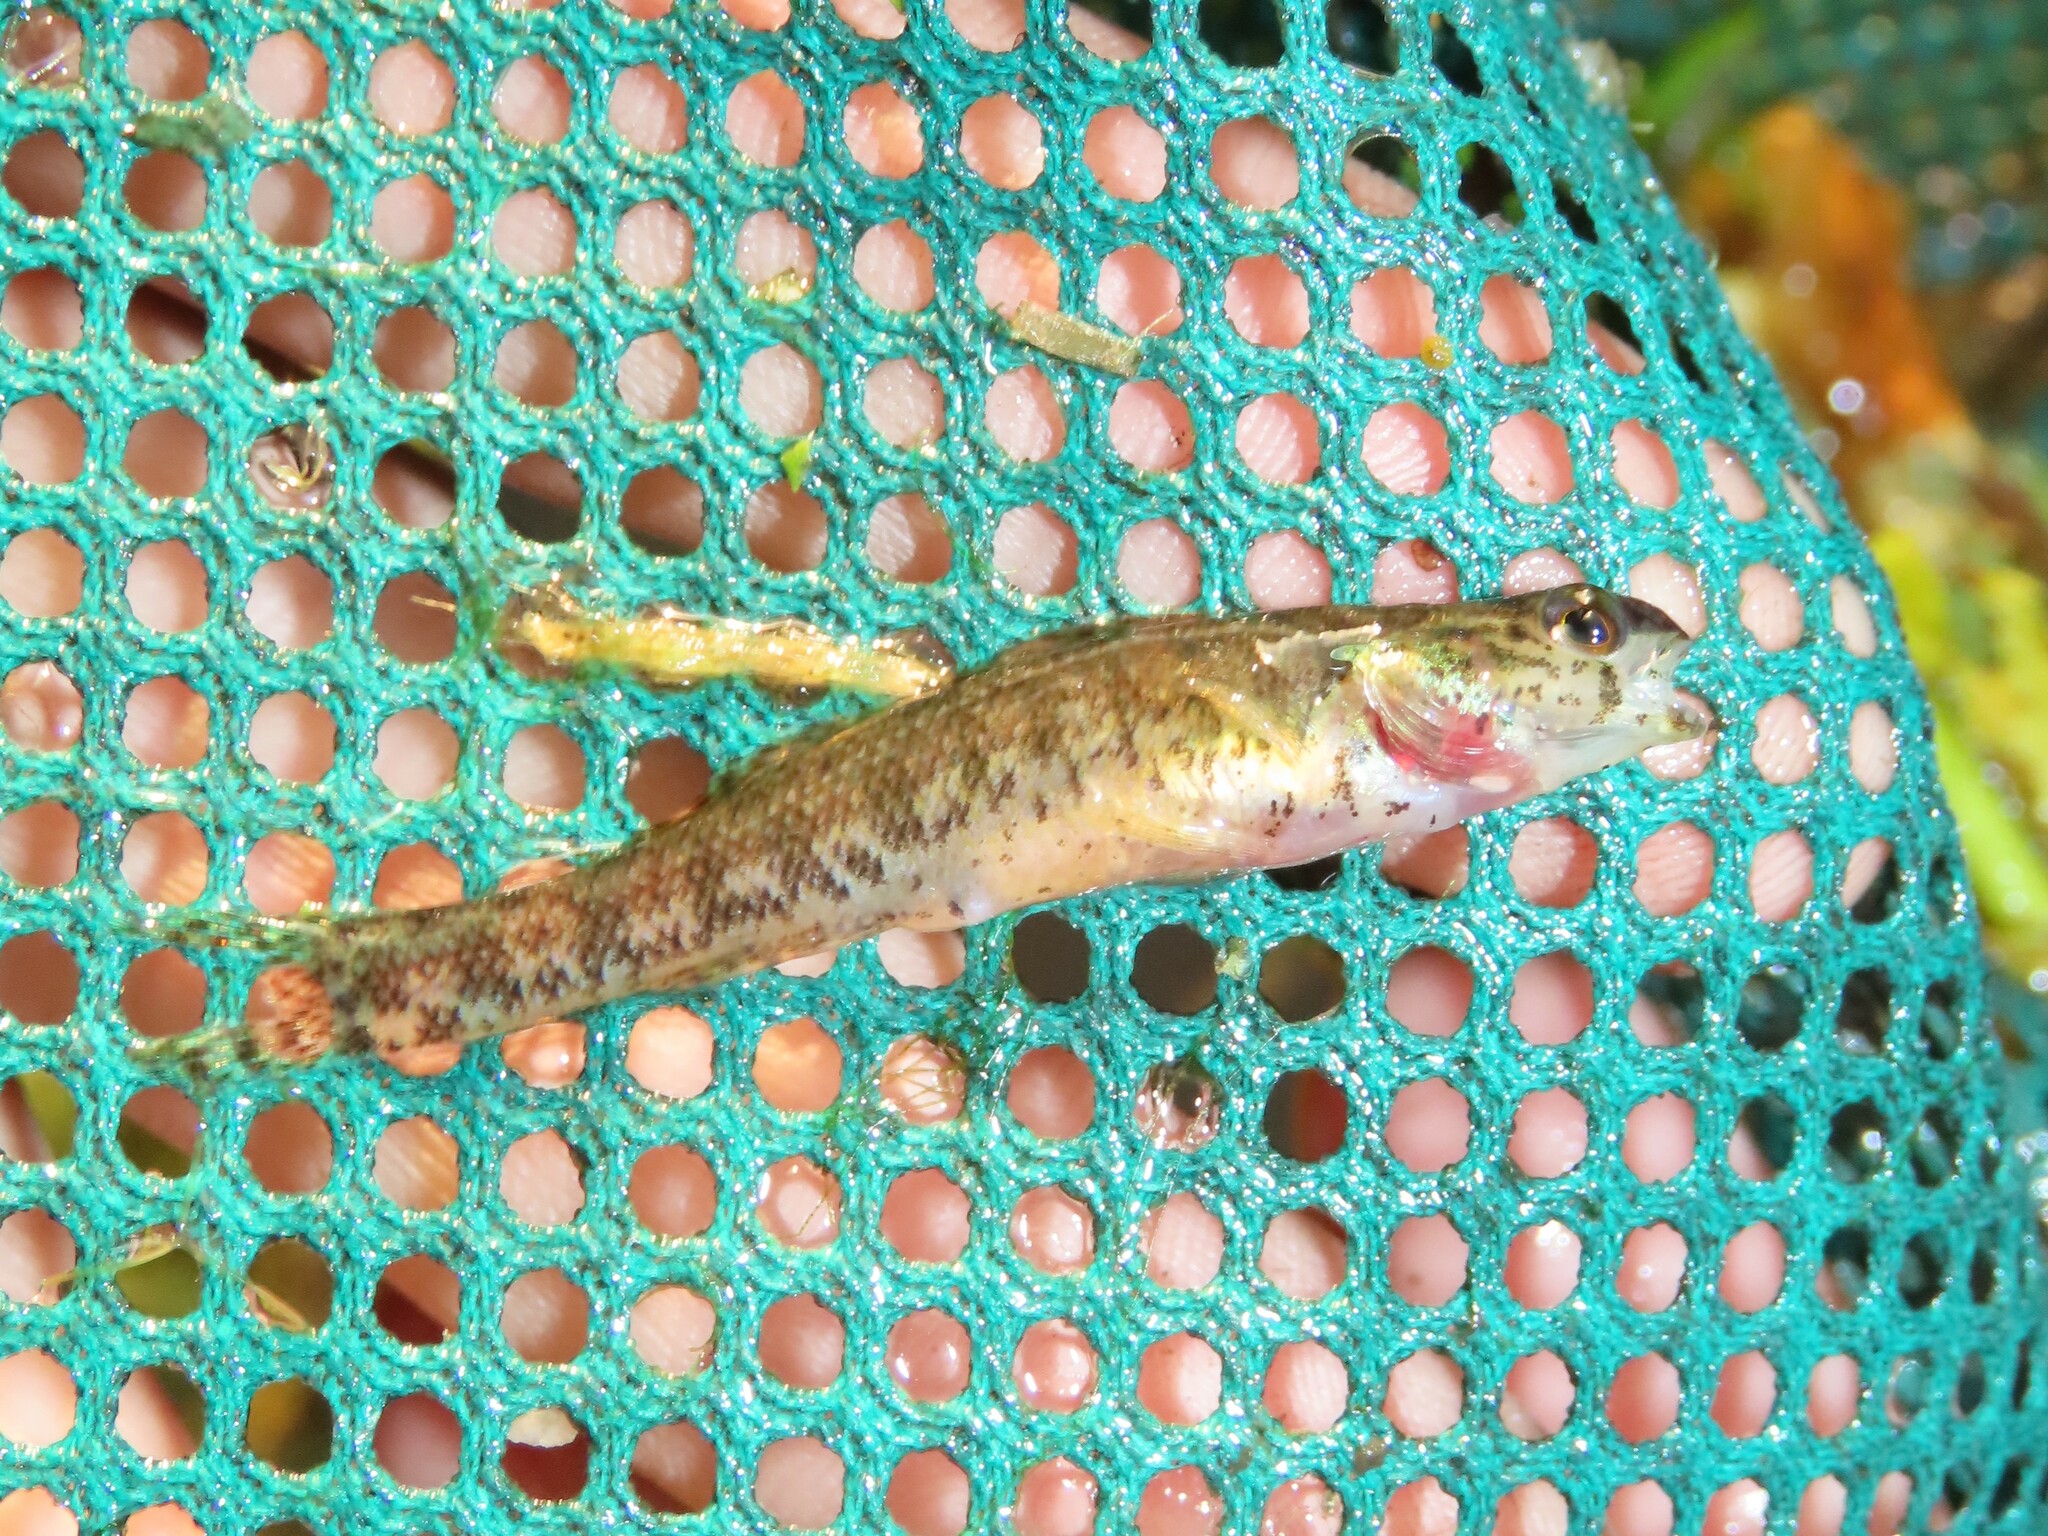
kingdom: Animalia
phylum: Chordata
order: Perciformes
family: Percidae
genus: Etheostoma
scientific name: Etheostoma fusiforme
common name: Swamp darter
